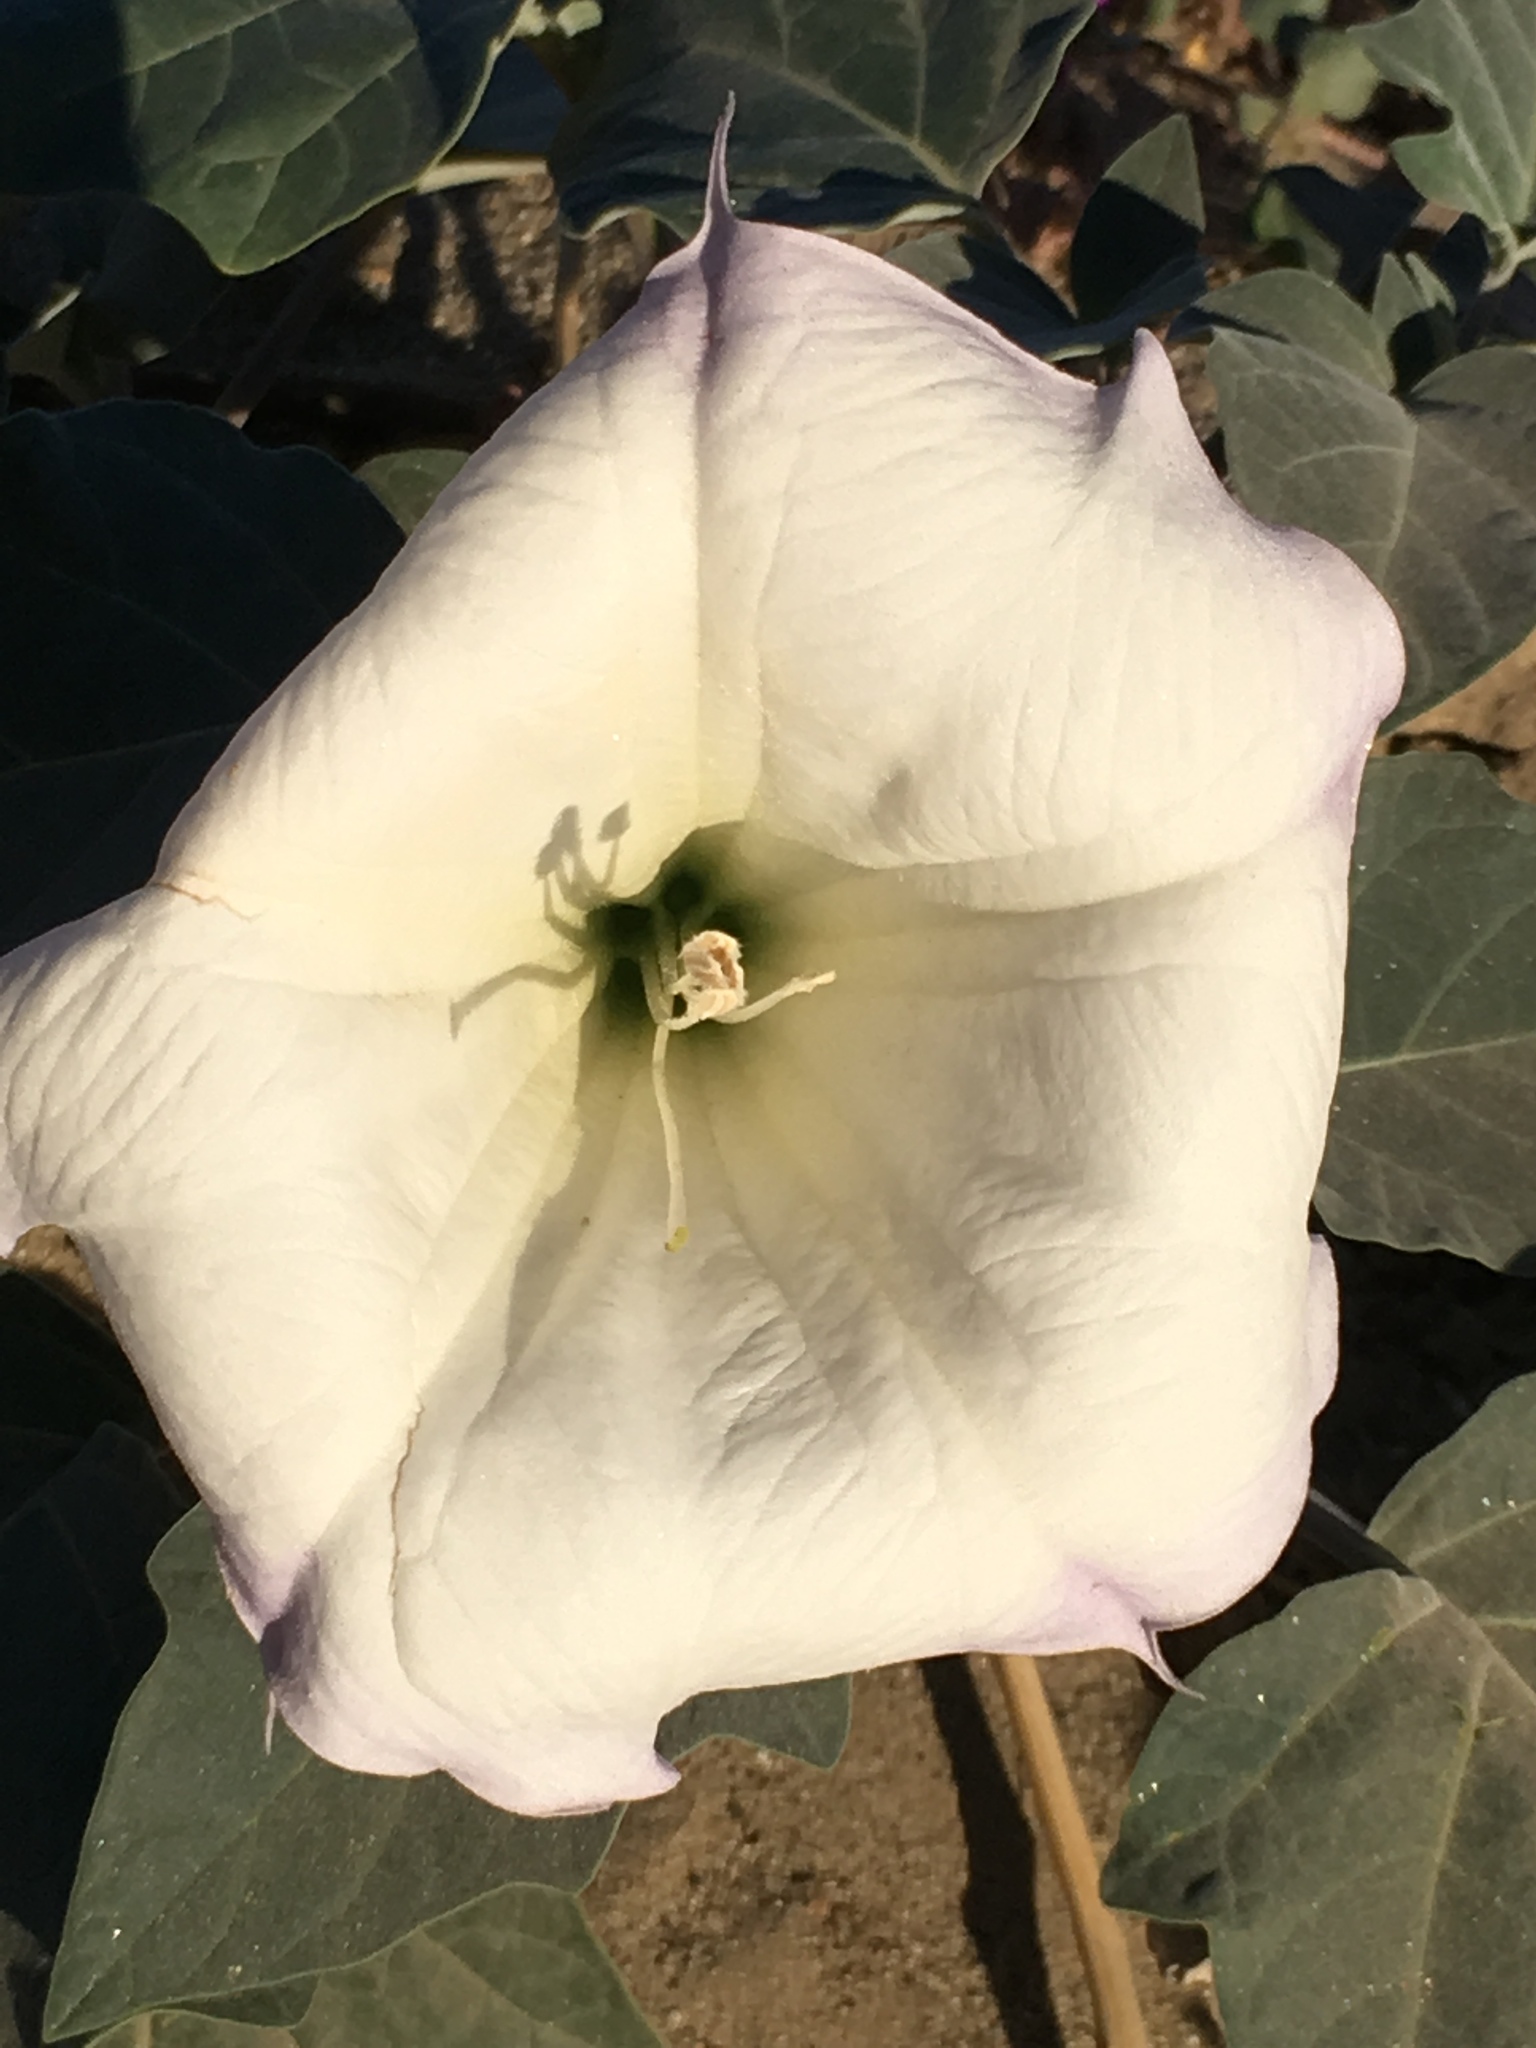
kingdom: Plantae
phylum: Tracheophyta
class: Magnoliopsida
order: Solanales
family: Solanaceae
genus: Datura
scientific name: Datura wrightii
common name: Sacred thorn-apple
